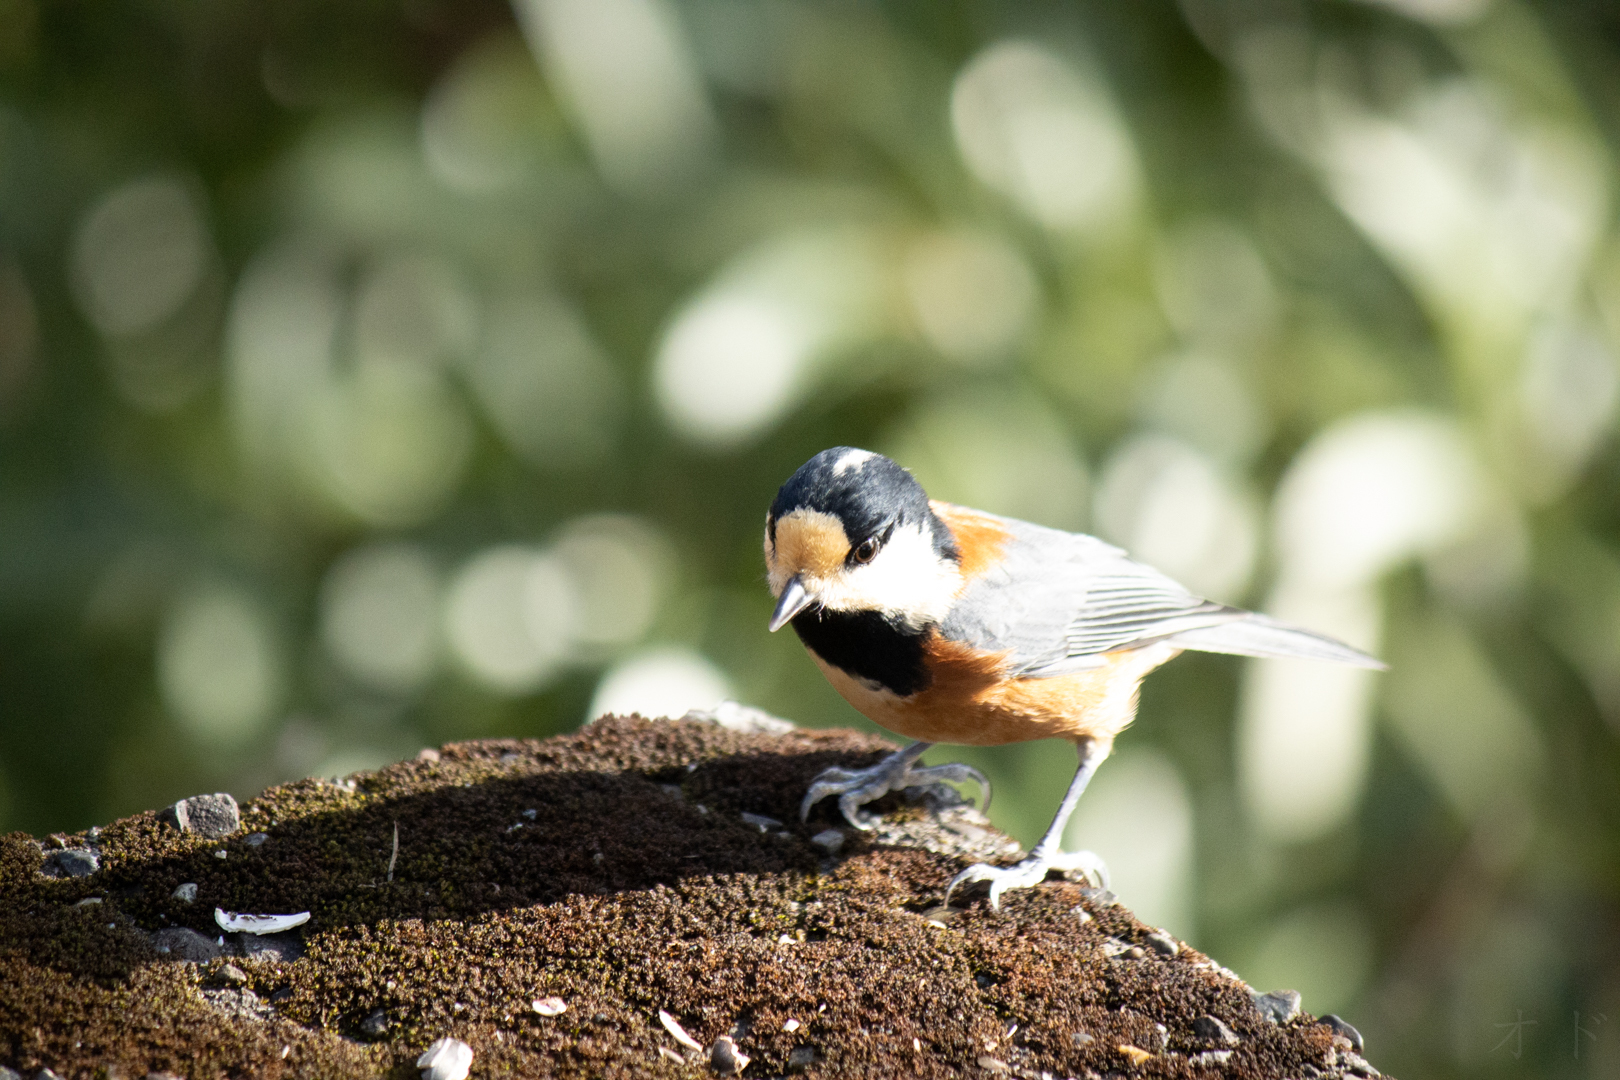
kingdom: Animalia
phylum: Chordata
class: Aves
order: Passeriformes
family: Paridae
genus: Poecile
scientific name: Poecile varius
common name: Varied tit
